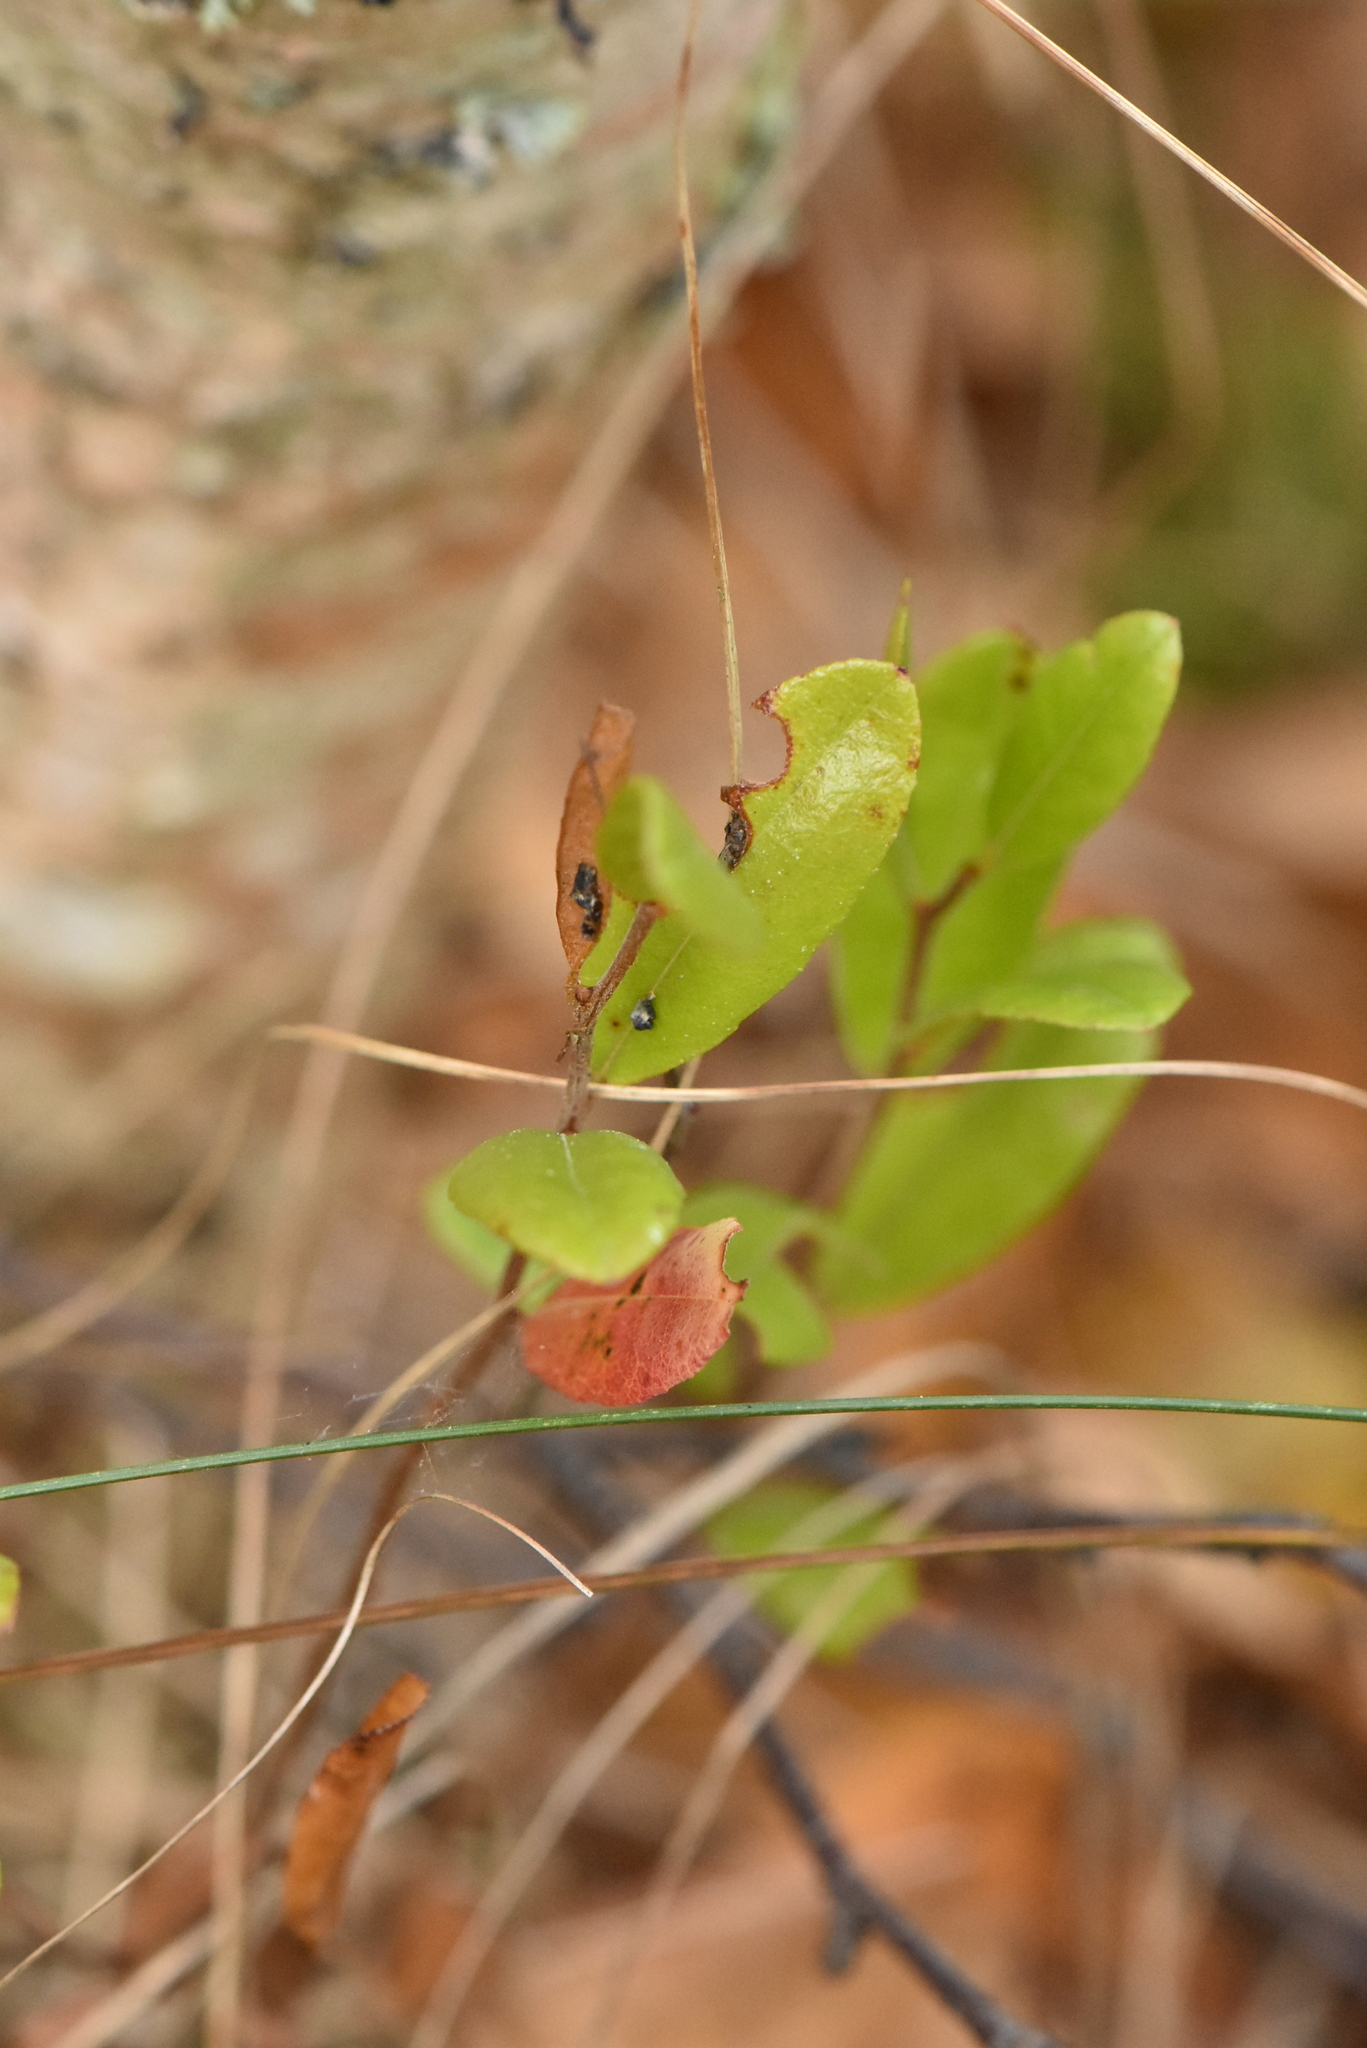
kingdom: Plantae
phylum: Tracheophyta
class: Magnoliopsida
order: Ericales
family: Ericaceae
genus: Chamaedaphne
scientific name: Chamaedaphne calyculata
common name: Leatherleaf
